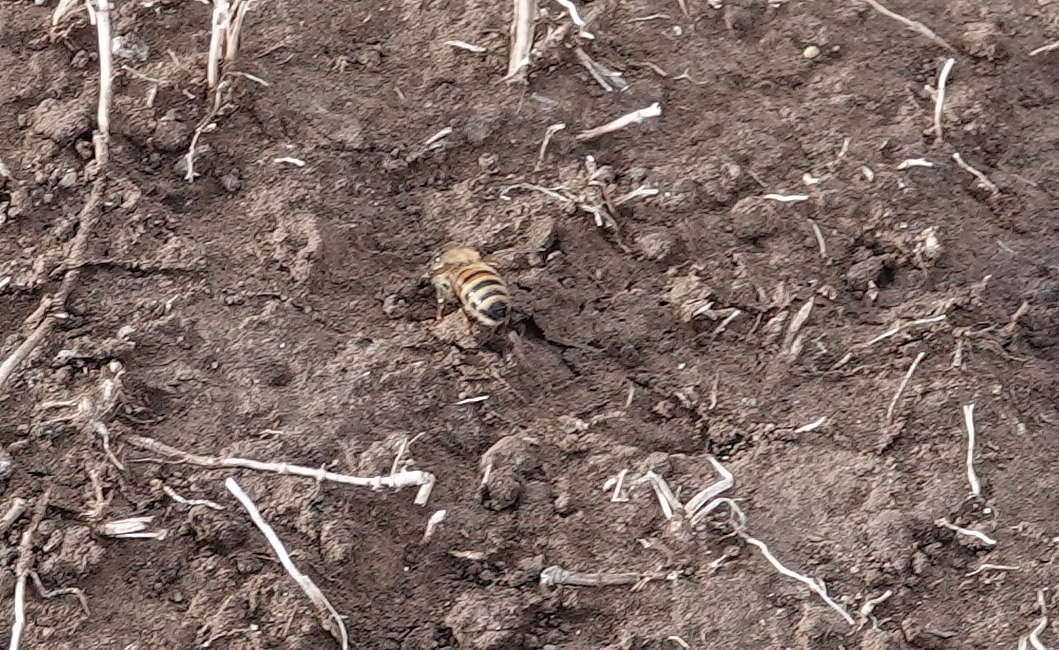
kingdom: Animalia
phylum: Arthropoda
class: Insecta
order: Hymenoptera
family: Apidae
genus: Apis
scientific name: Apis mellifera
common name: Honey bee
